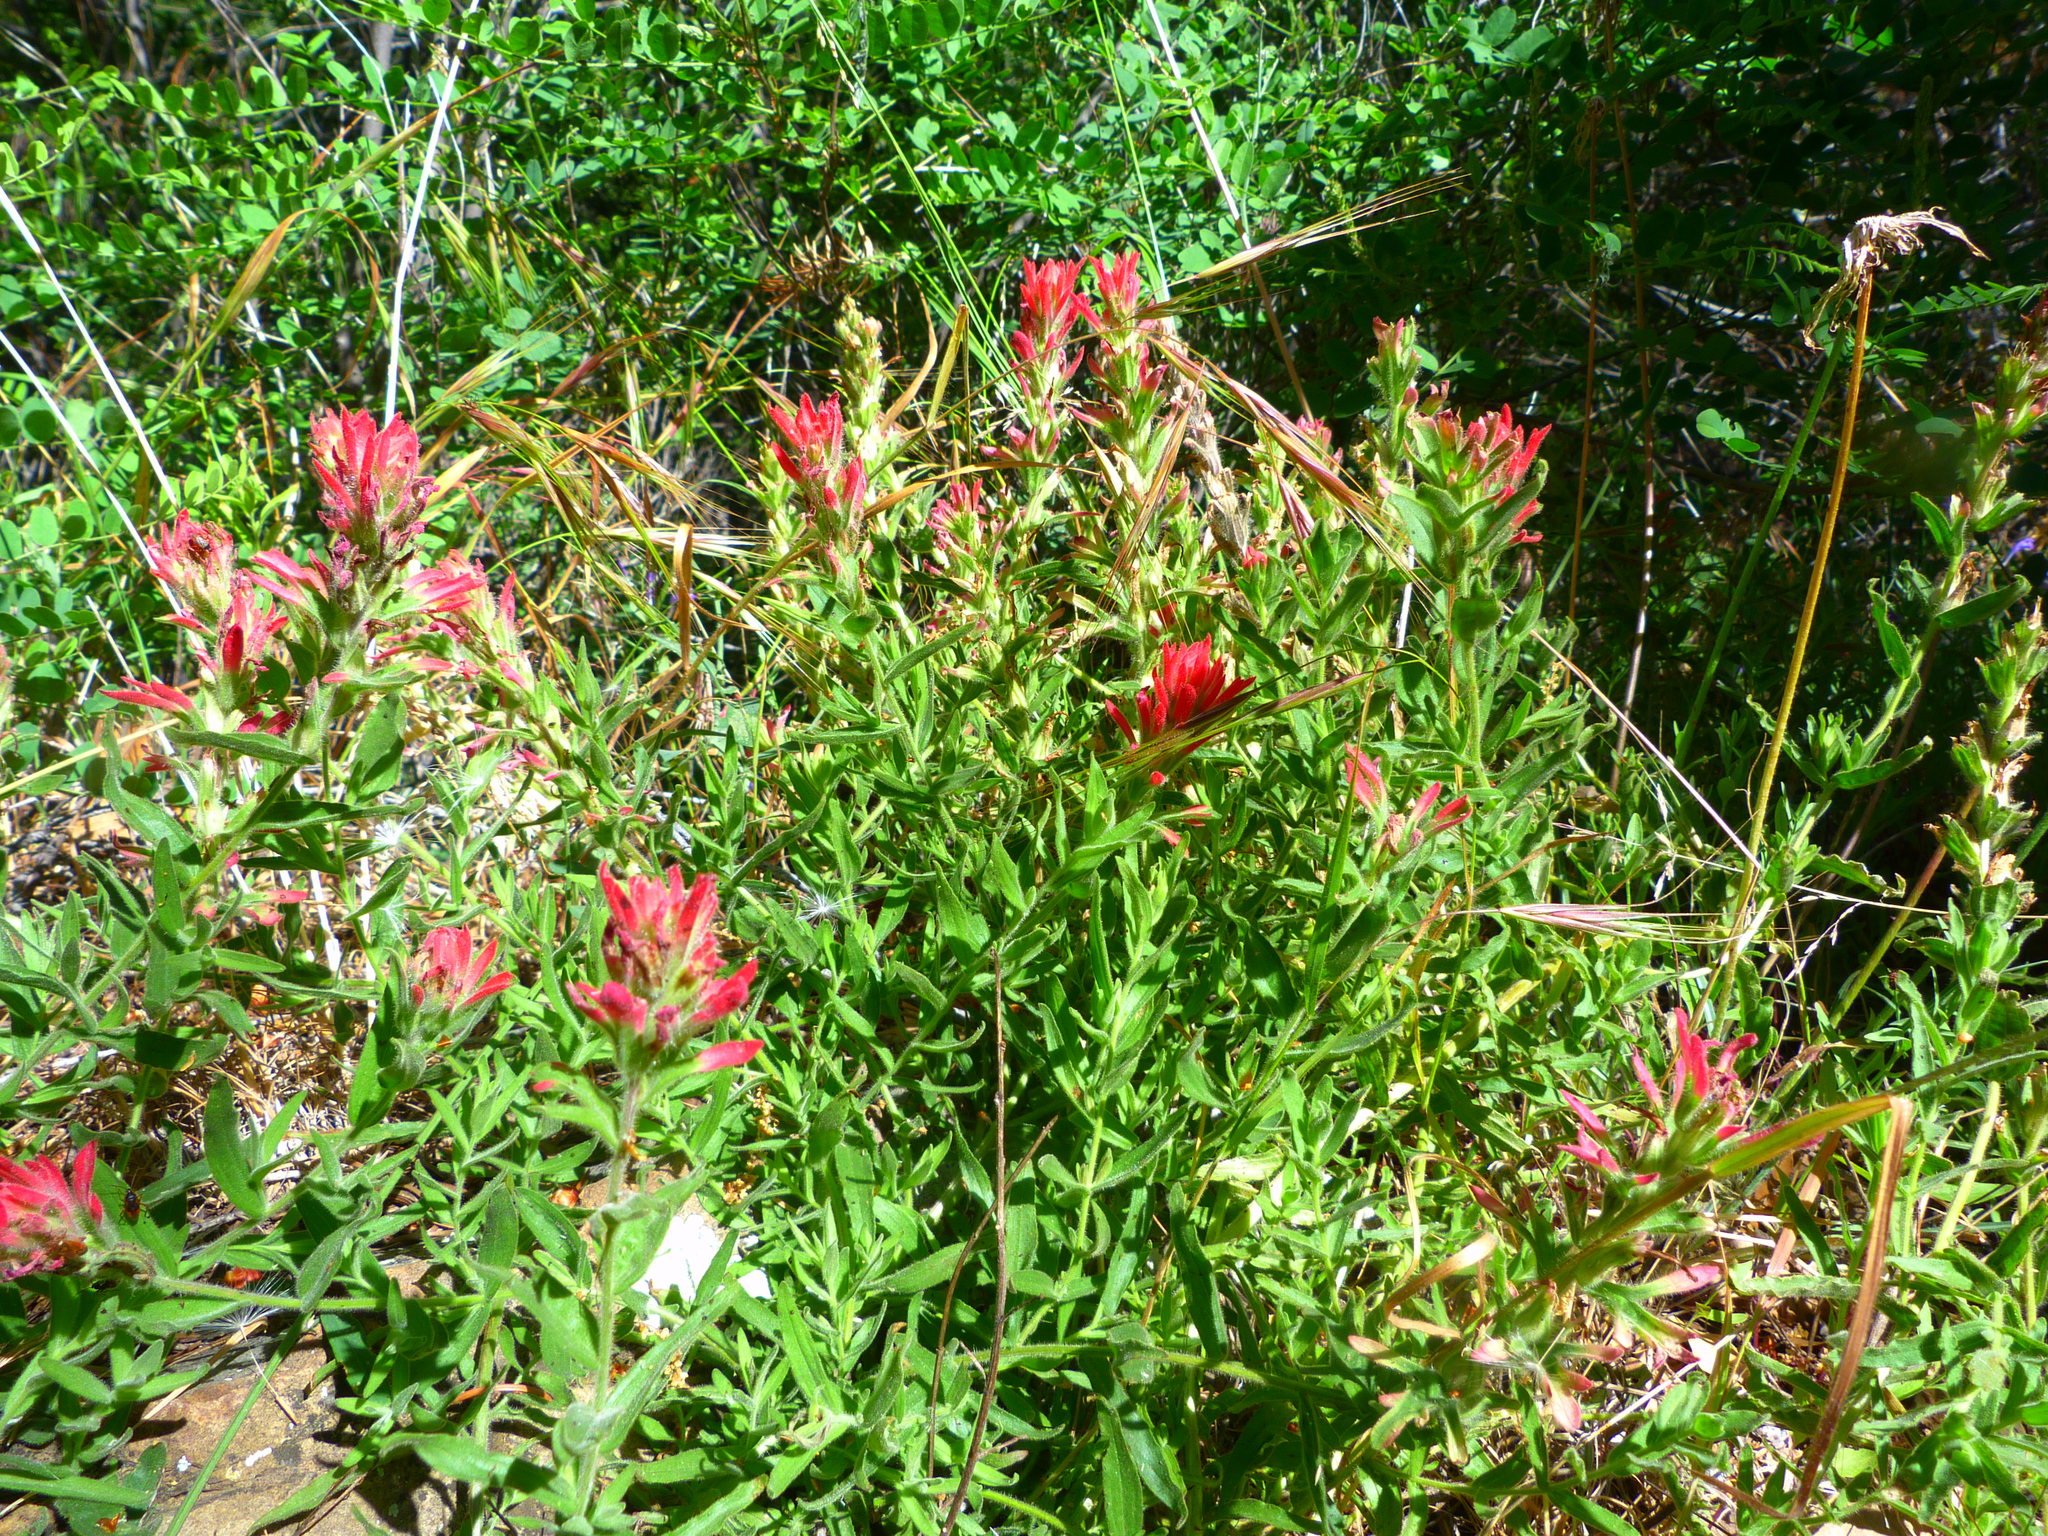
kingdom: Plantae
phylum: Tracheophyta
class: Magnoliopsida
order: Lamiales
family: Orobanchaceae
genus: Castilleja
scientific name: Castilleja martini
